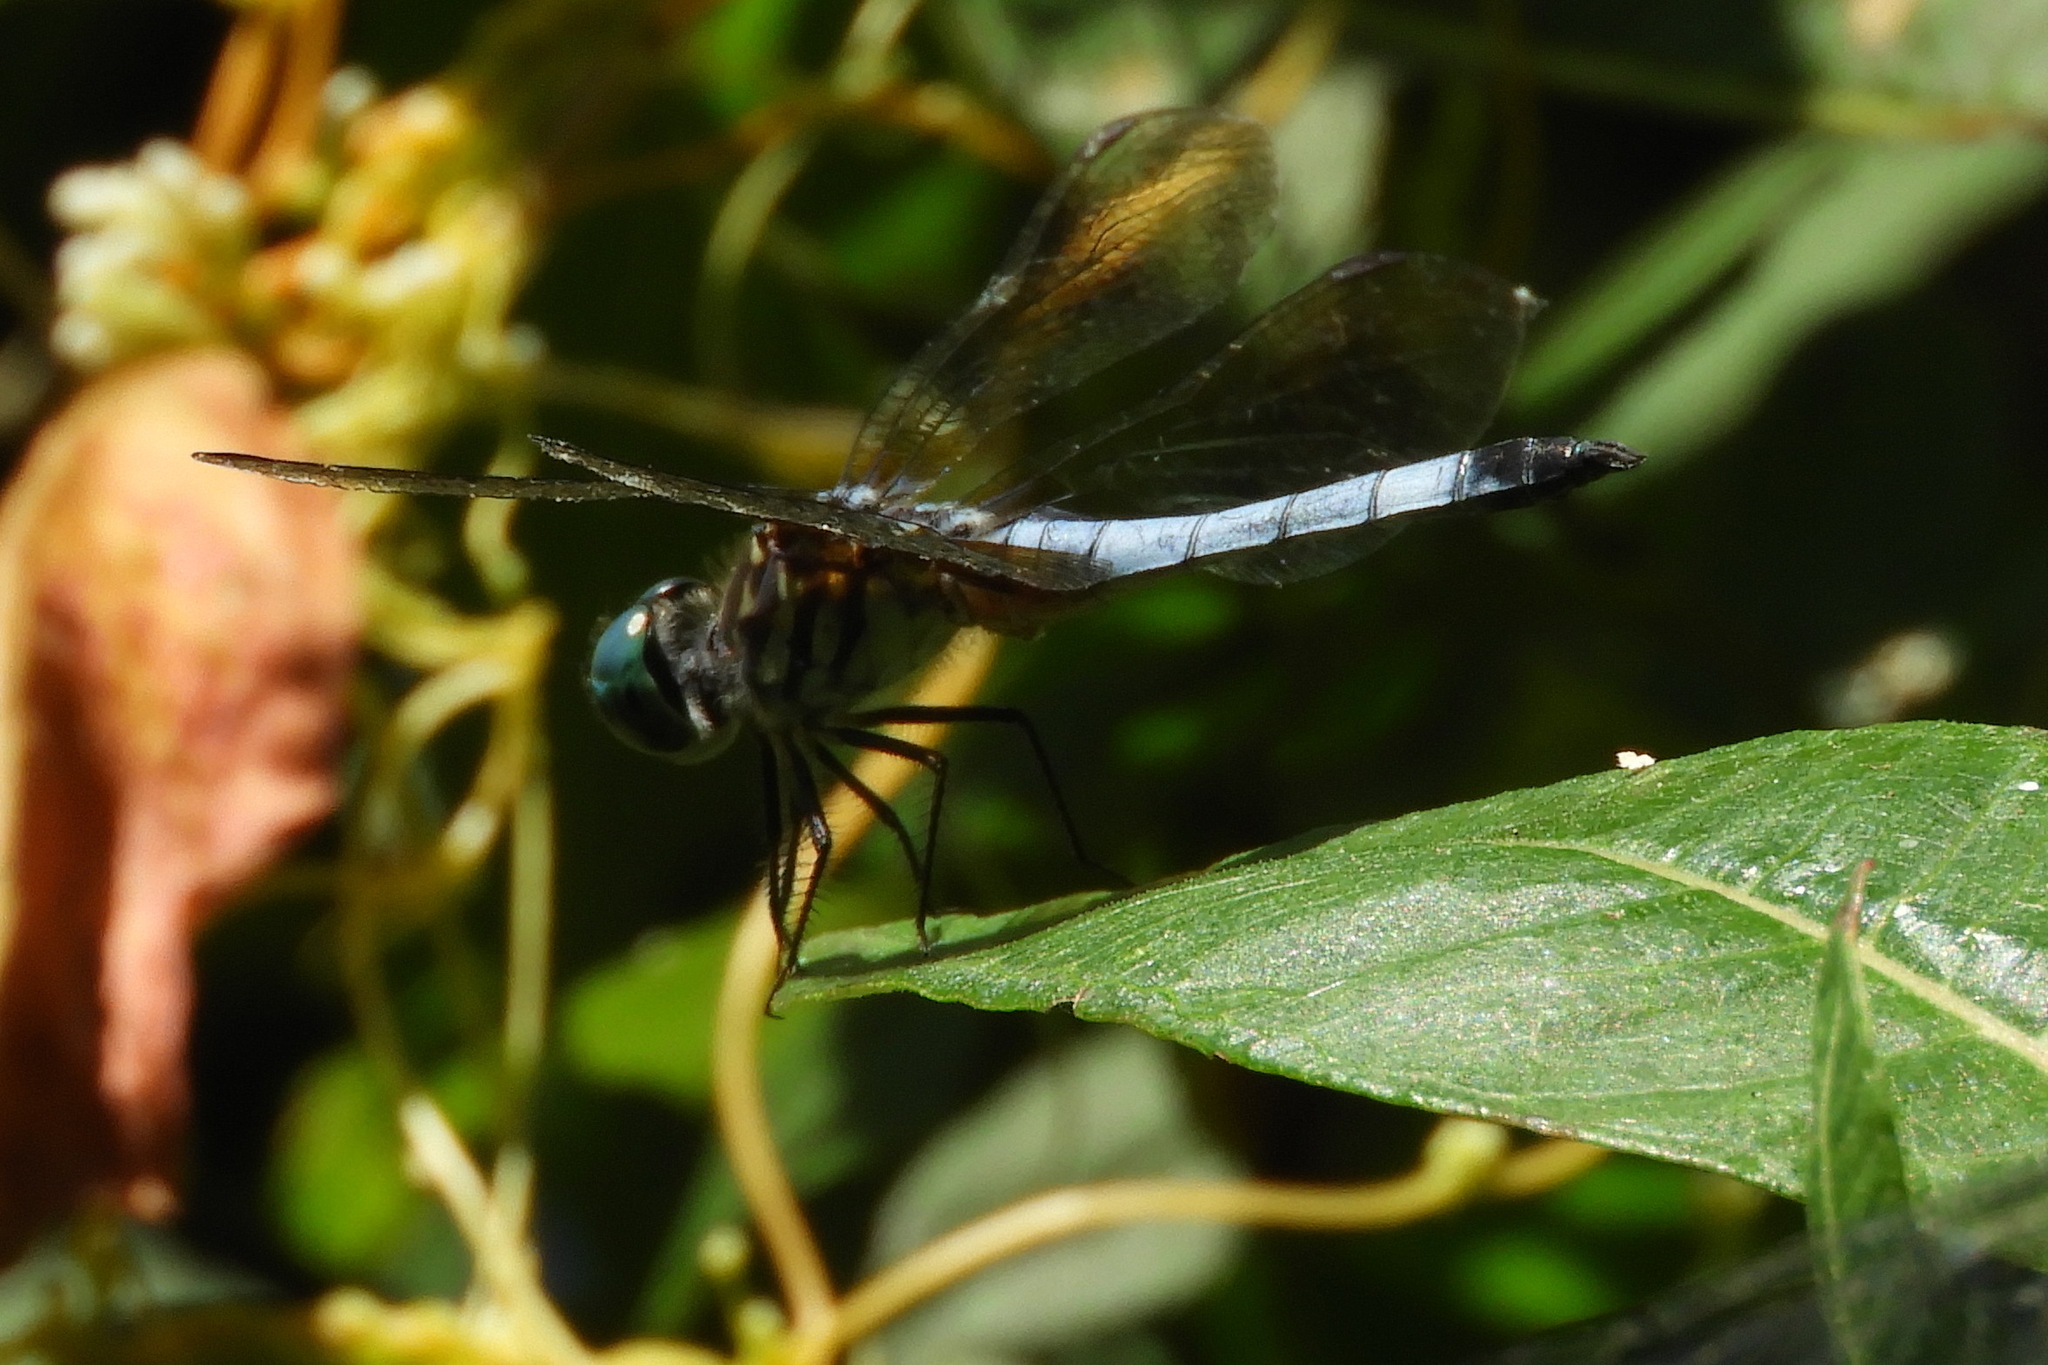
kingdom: Animalia
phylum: Arthropoda
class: Insecta
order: Odonata
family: Libellulidae
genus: Pachydiplax
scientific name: Pachydiplax longipennis
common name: Blue dasher
